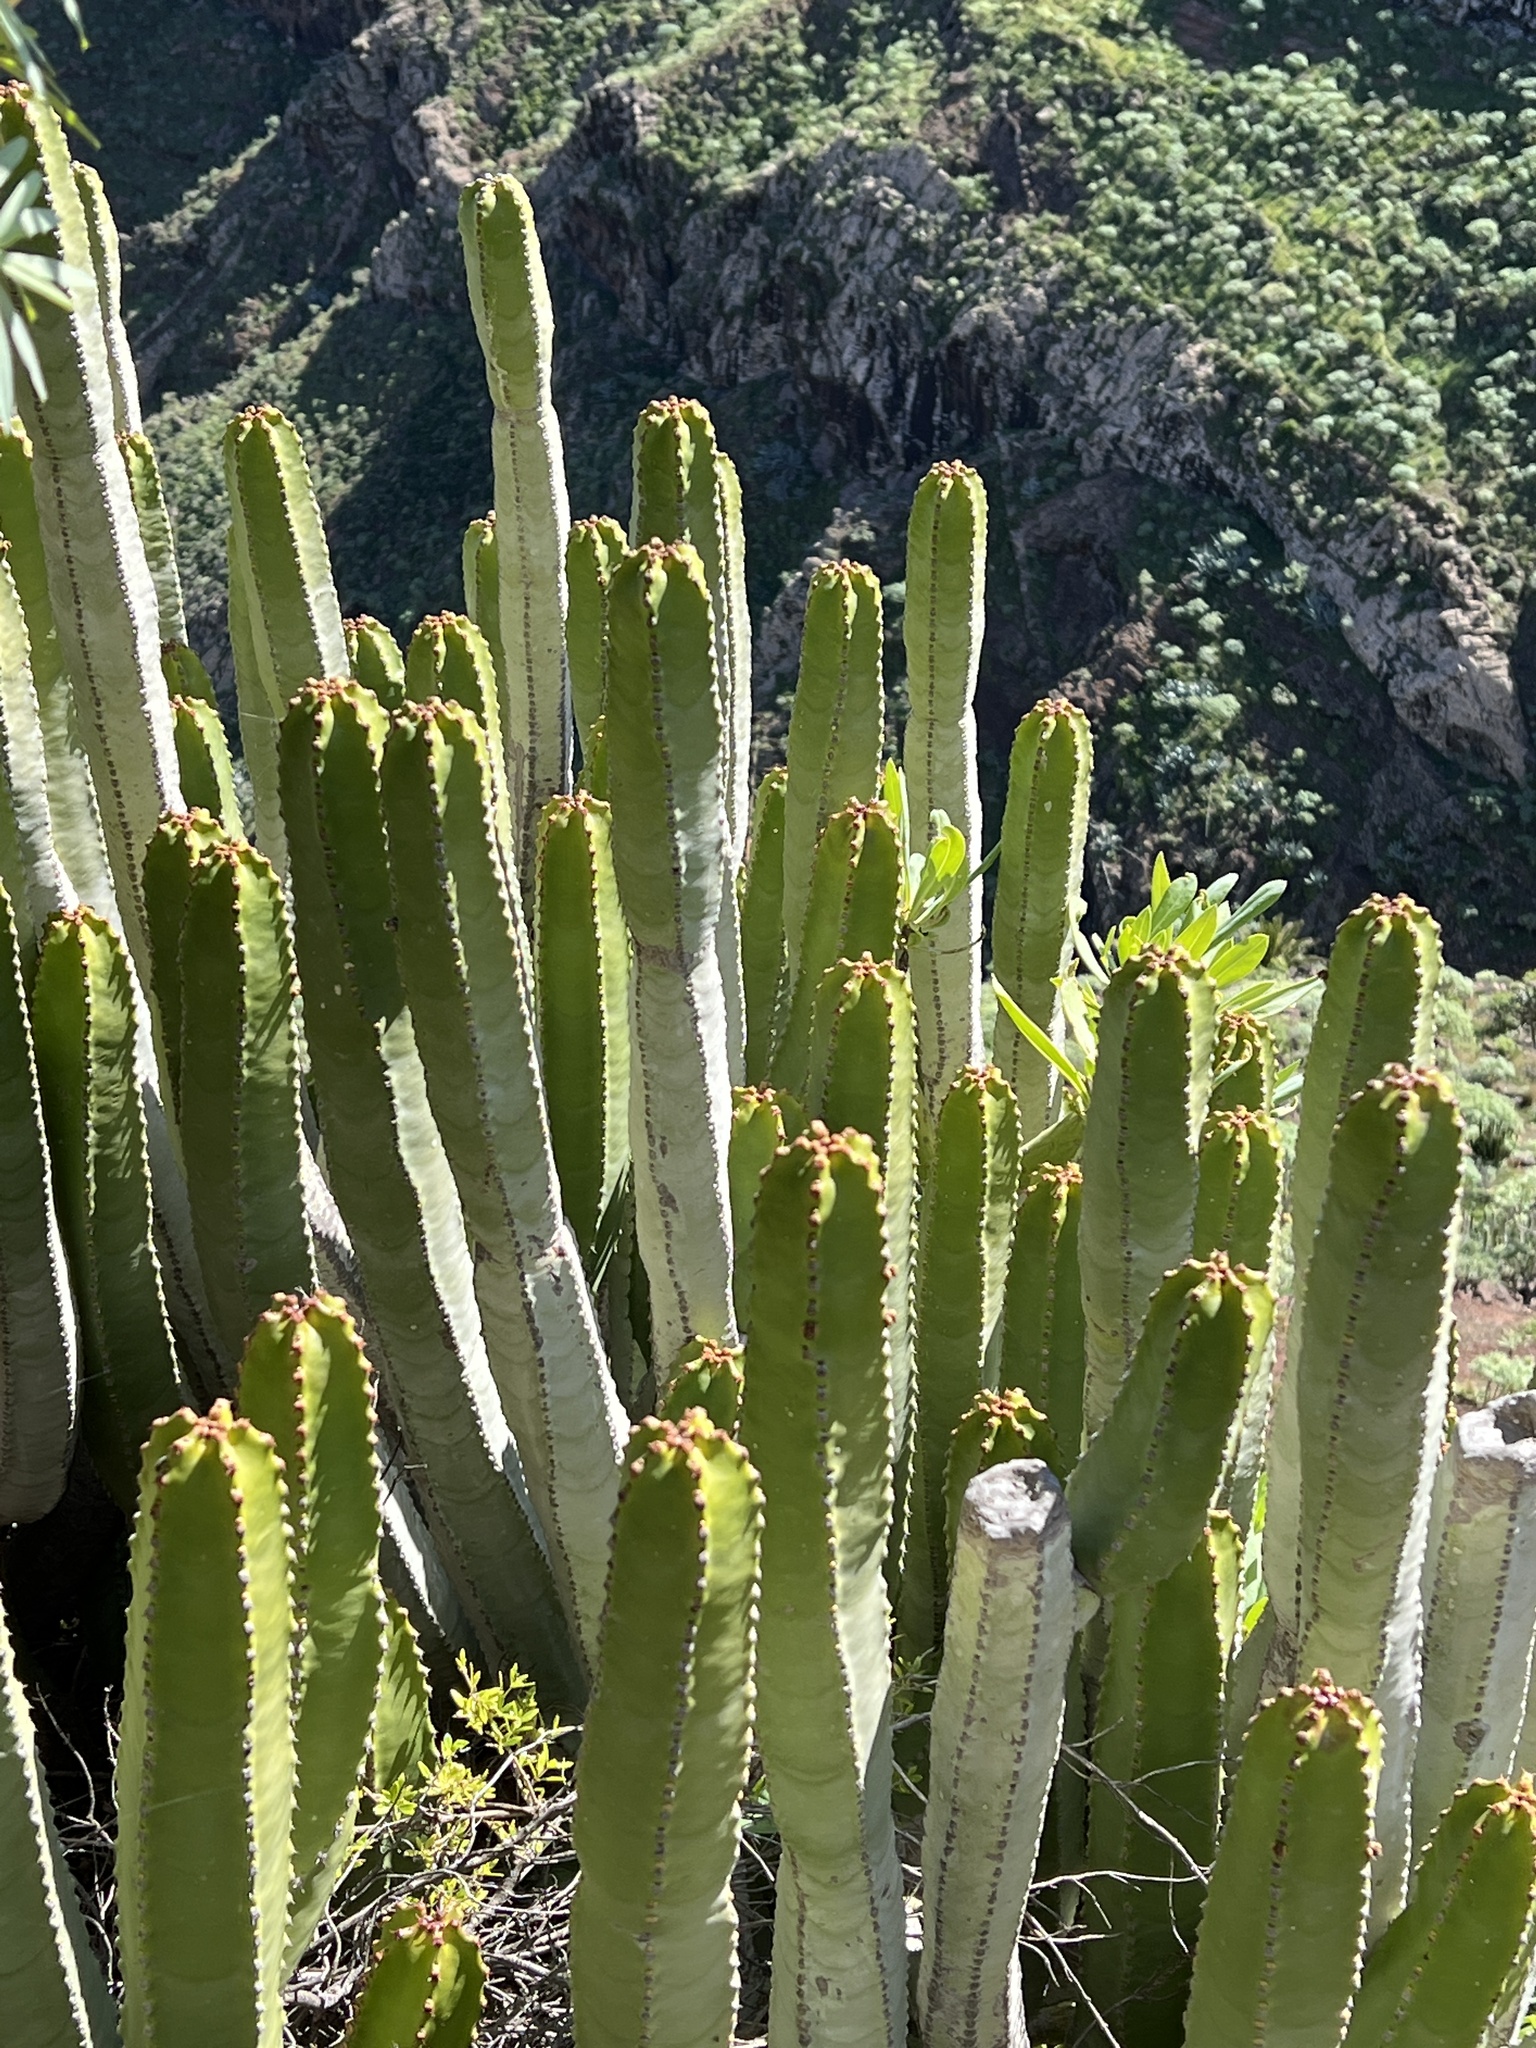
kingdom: Plantae
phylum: Tracheophyta
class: Magnoliopsida
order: Malpighiales
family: Euphorbiaceae
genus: Euphorbia
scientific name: Euphorbia canariensis
